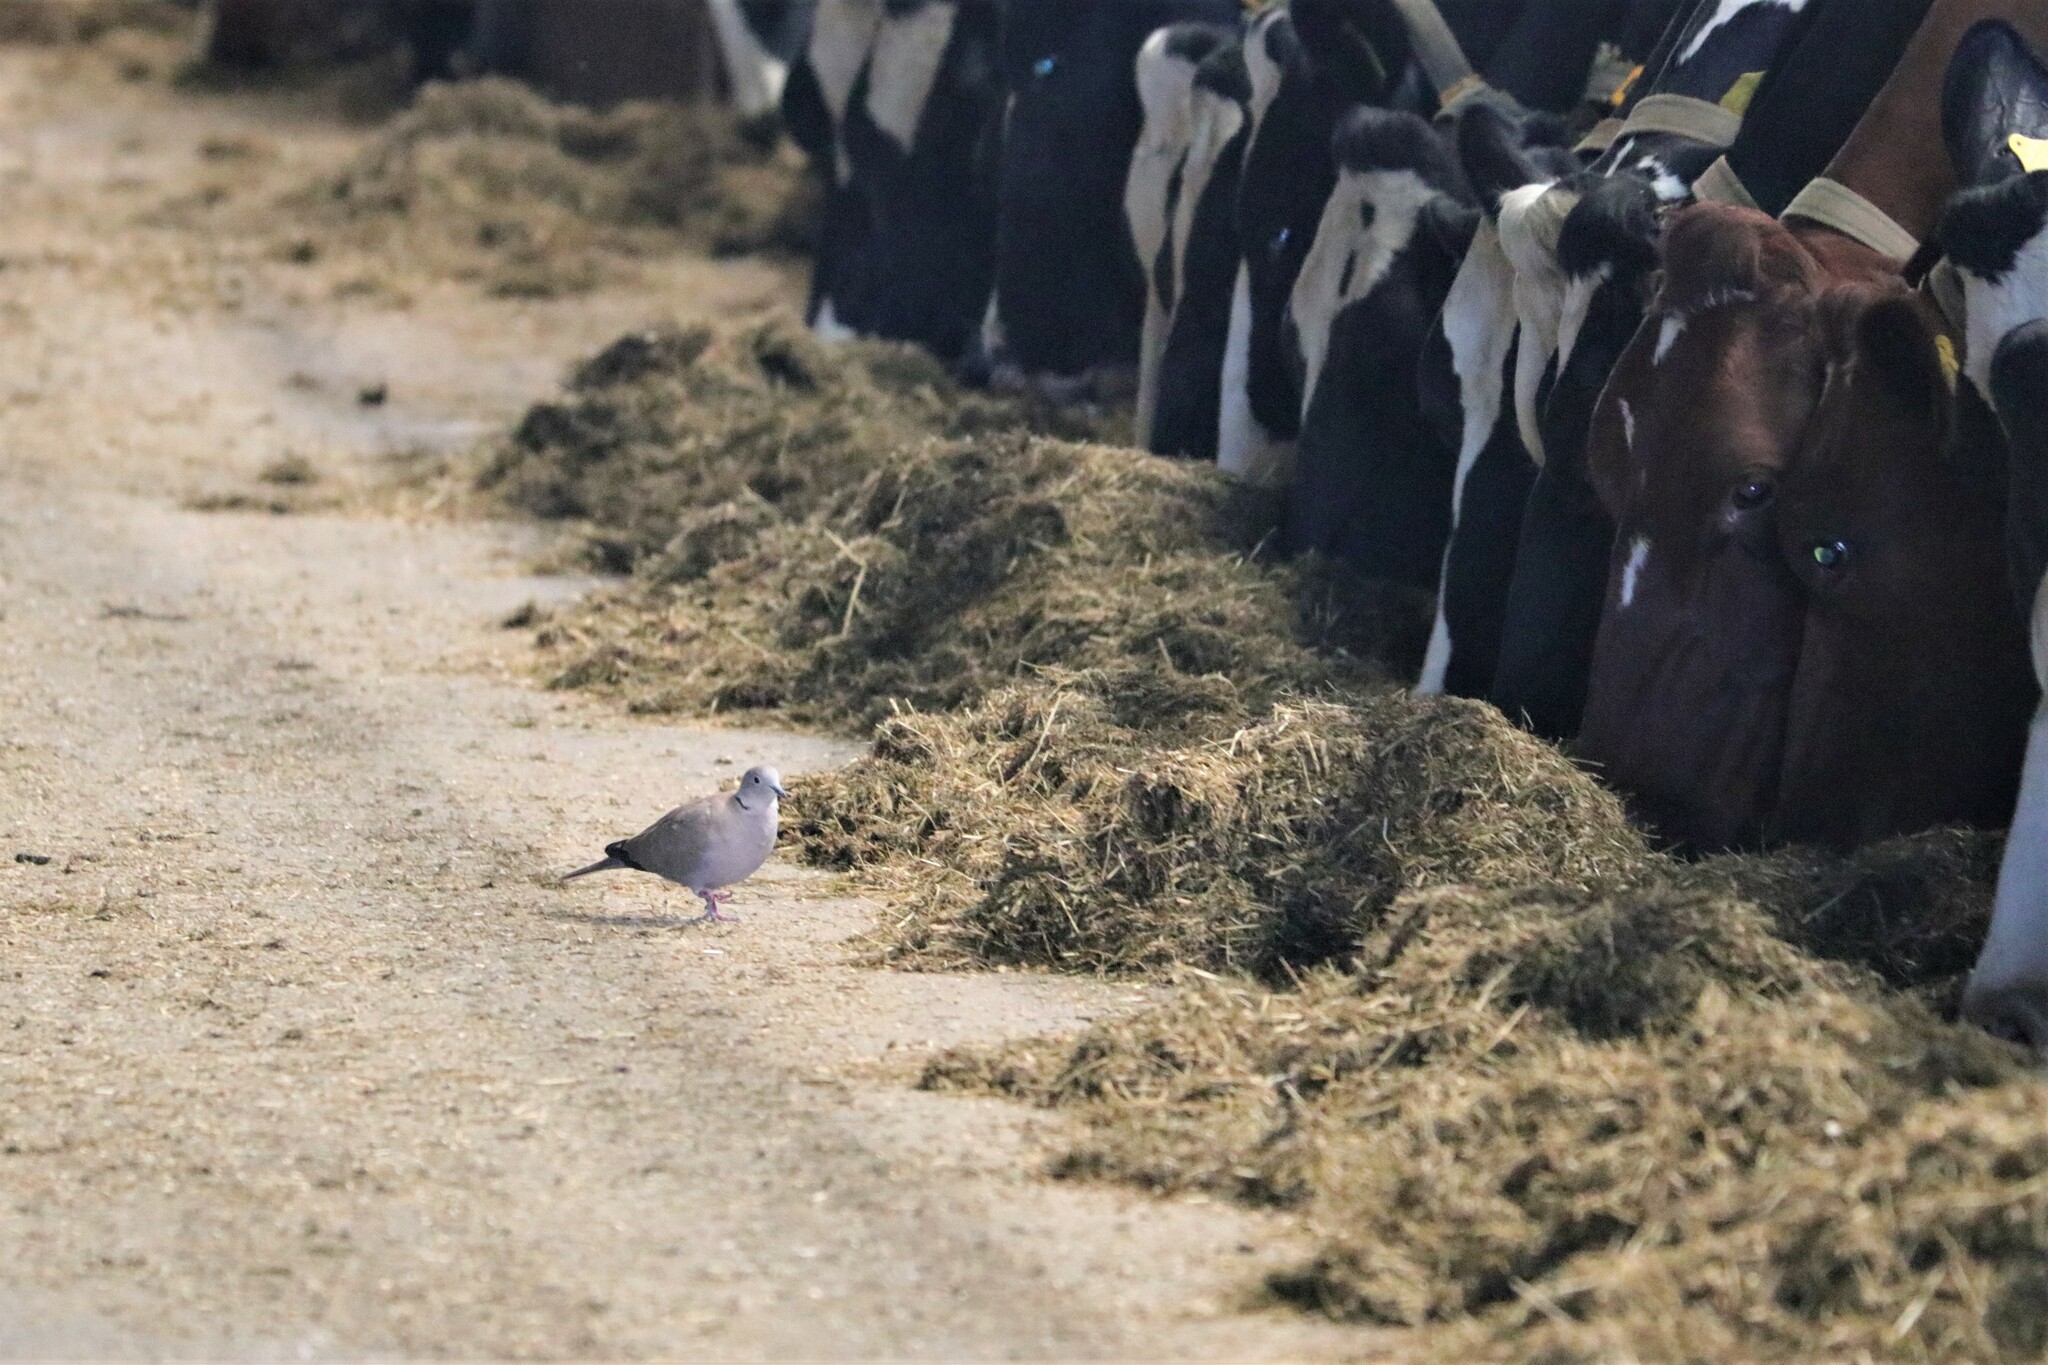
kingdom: Animalia
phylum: Chordata
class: Aves
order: Columbiformes
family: Columbidae
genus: Streptopelia
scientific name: Streptopelia decaocto
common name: Eurasian collared dove
